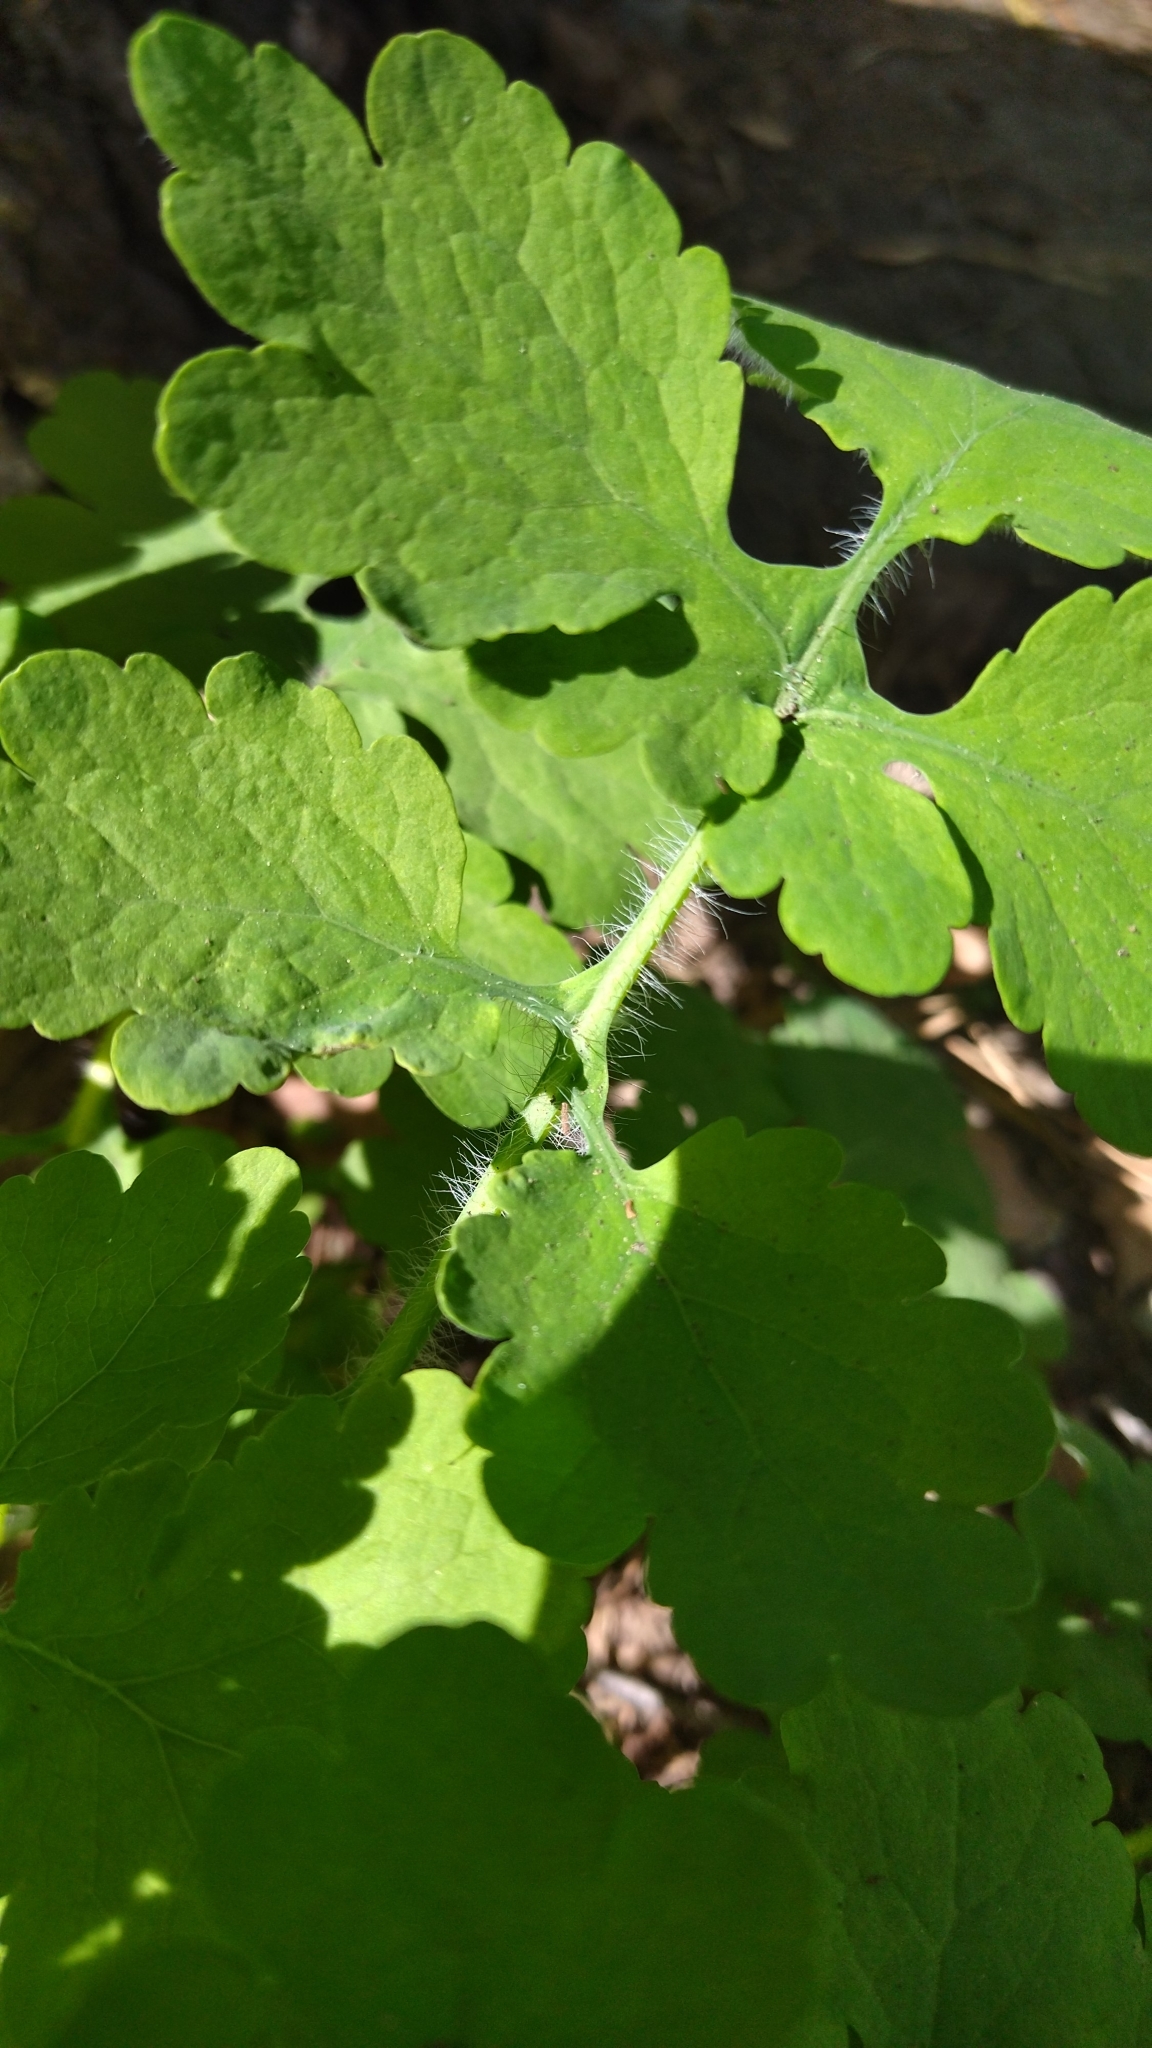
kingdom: Plantae
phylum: Tracheophyta
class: Magnoliopsida
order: Ranunculales
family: Papaveraceae
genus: Chelidonium
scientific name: Chelidonium majus
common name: Greater celandine
